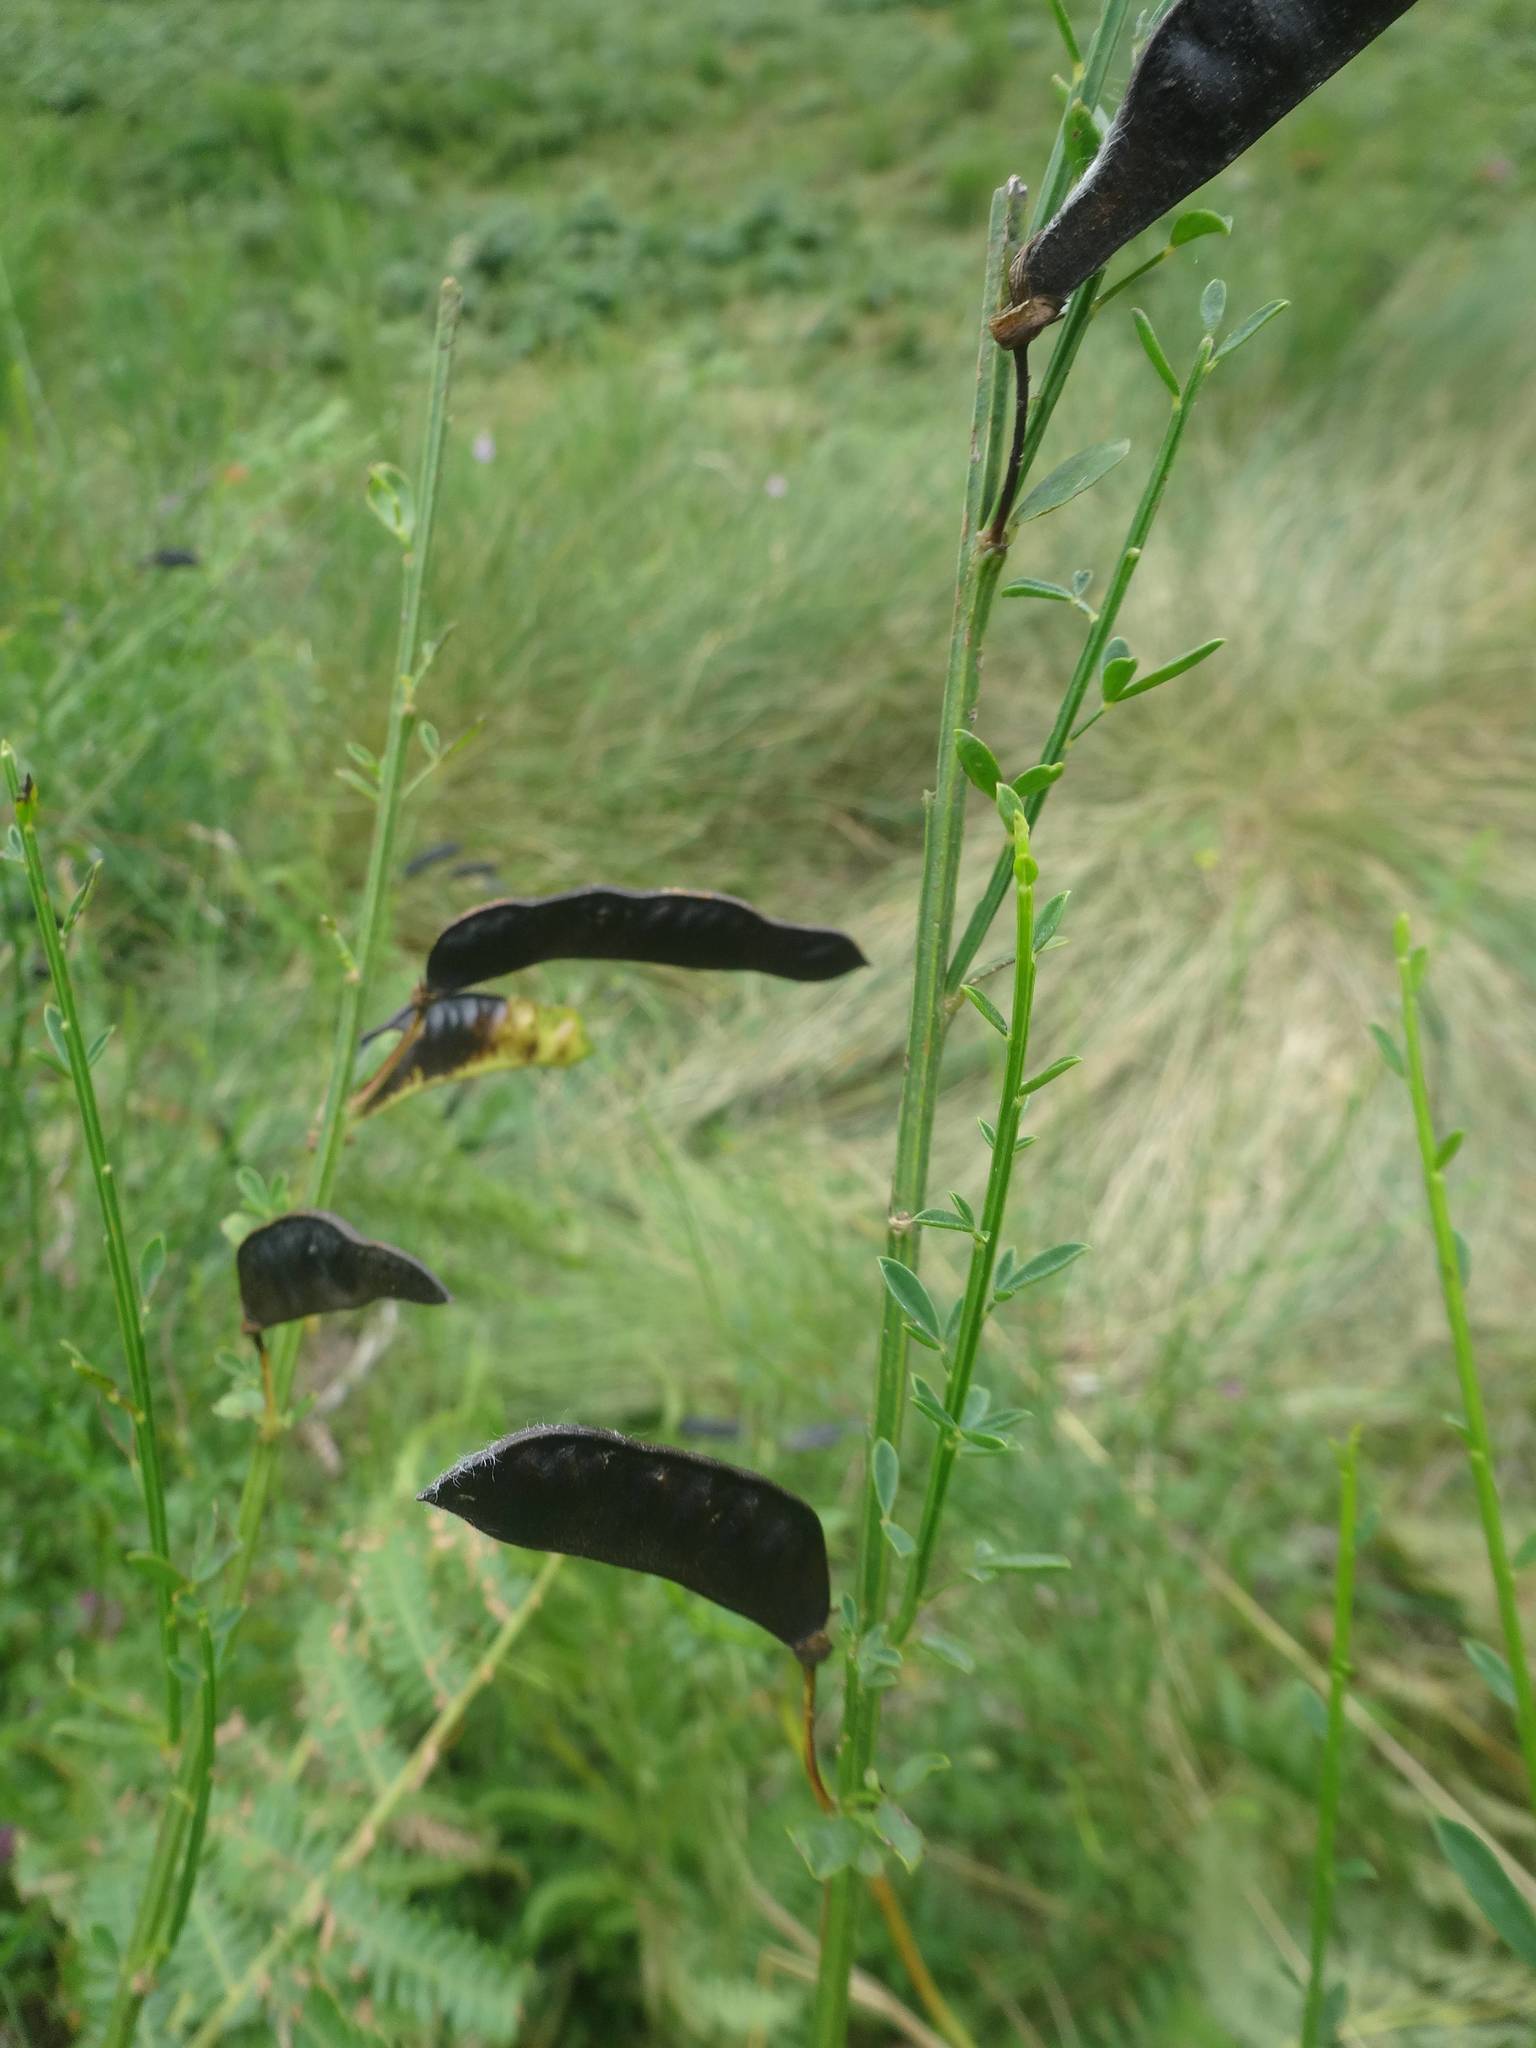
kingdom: Plantae
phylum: Tracheophyta
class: Magnoliopsida
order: Fabales
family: Fabaceae
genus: Cytisus
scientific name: Cytisus scoparius
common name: Scotch broom
